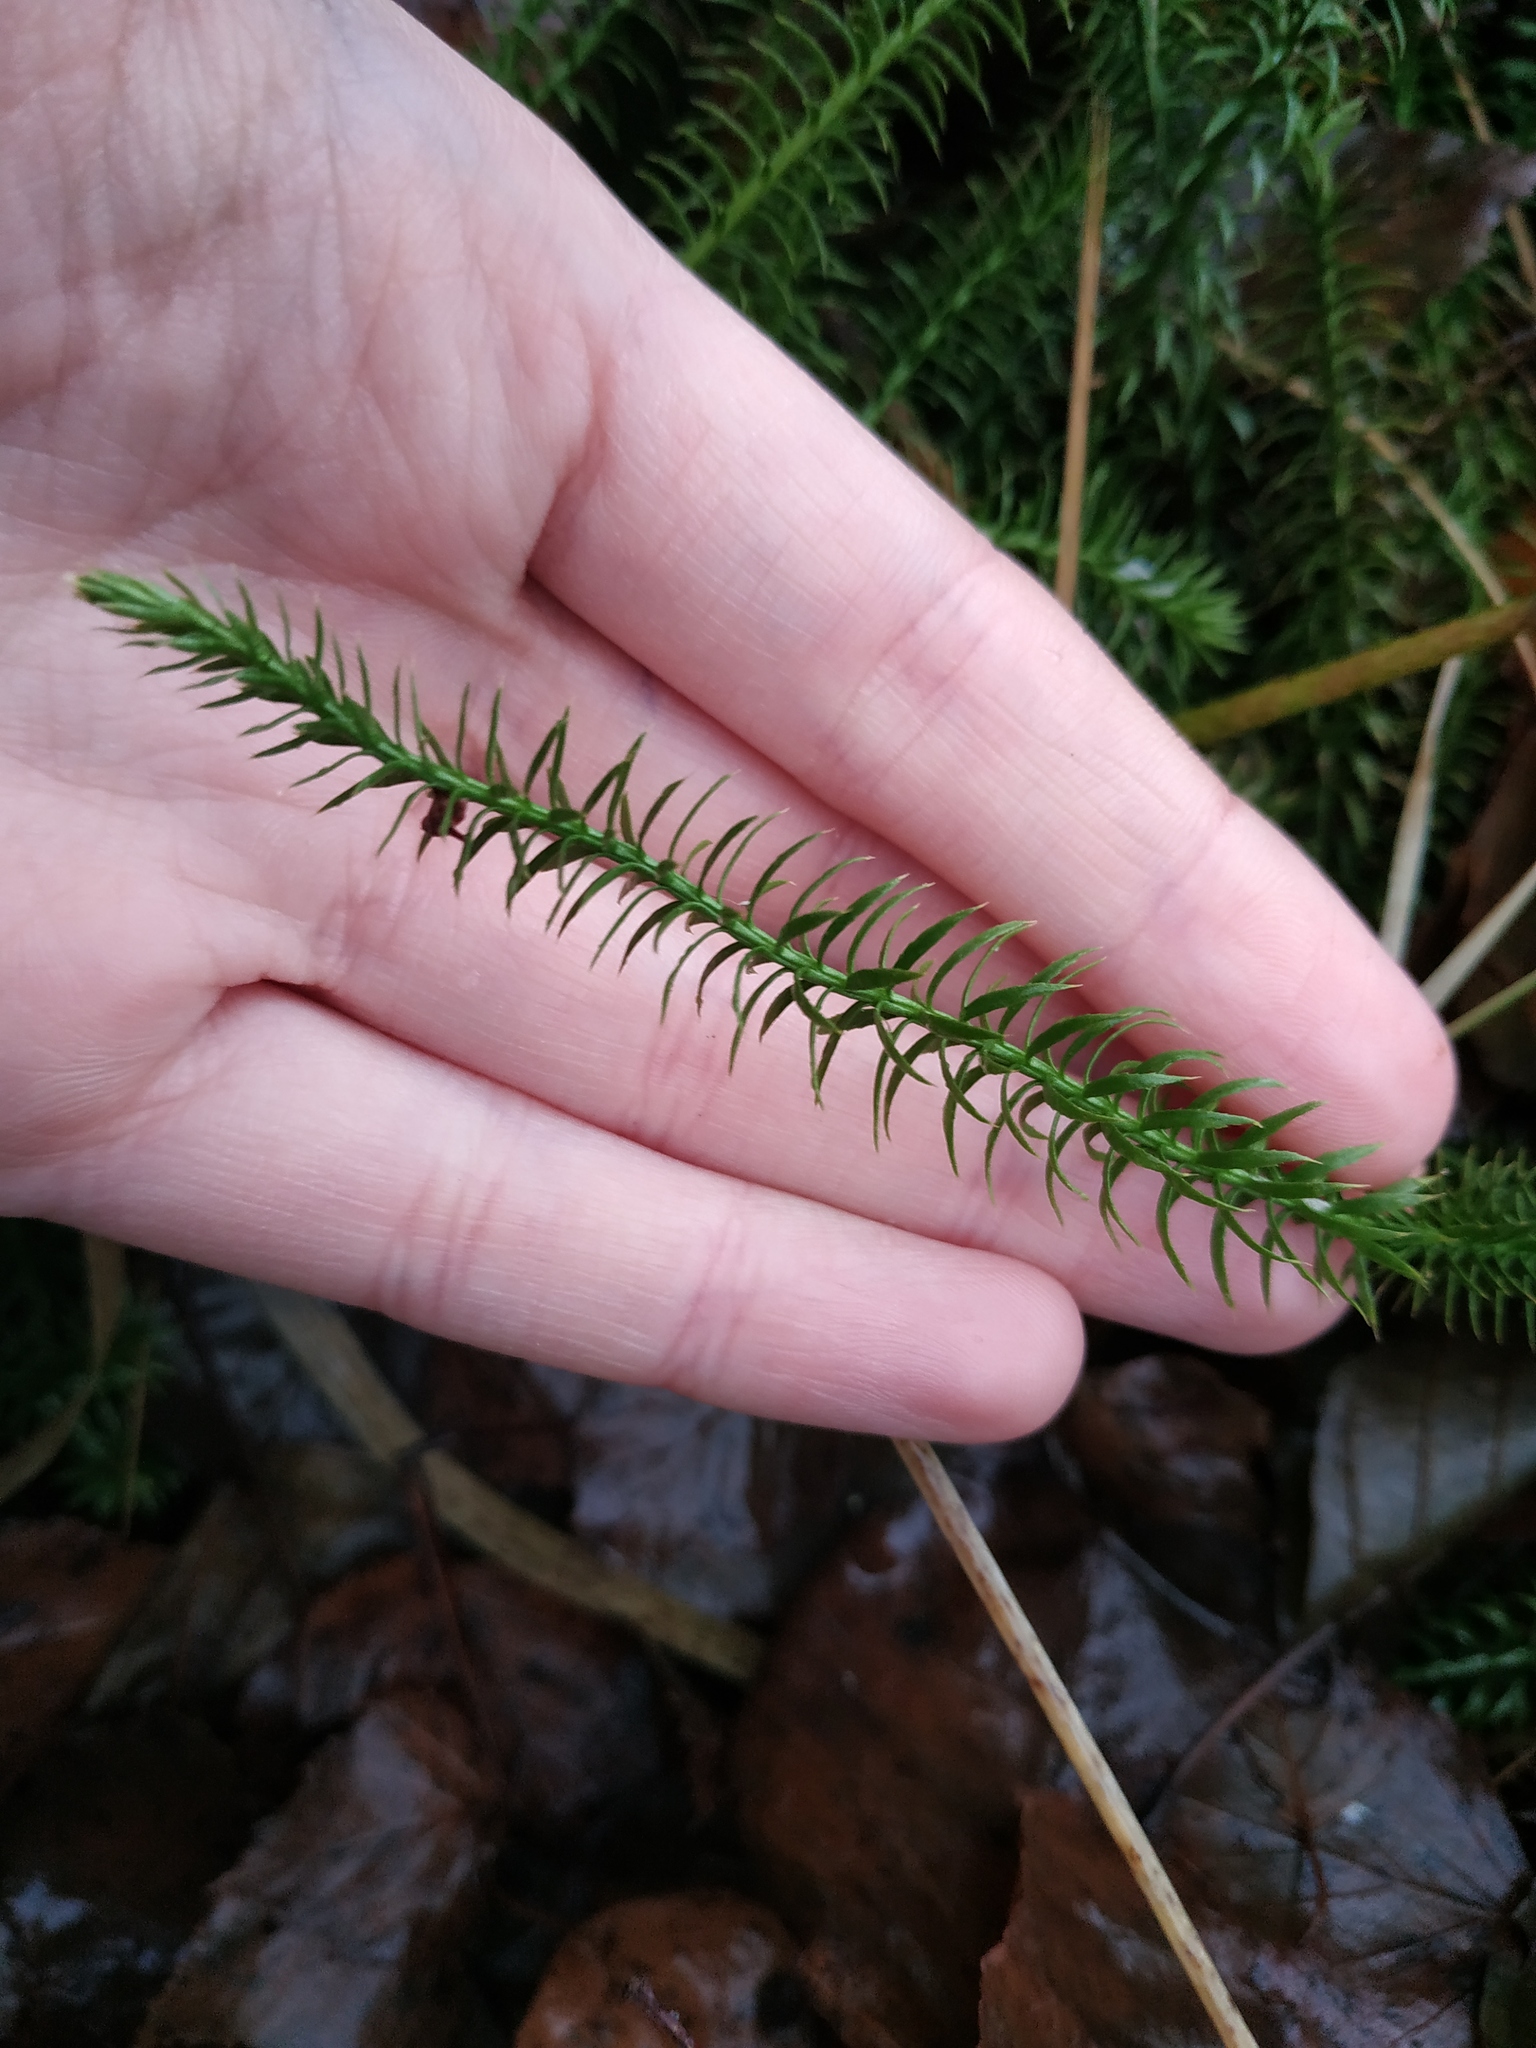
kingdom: Plantae
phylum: Tracheophyta
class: Lycopodiopsida
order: Lycopodiales
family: Lycopodiaceae
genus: Spinulum
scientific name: Spinulum annotinum
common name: Interrupted club-moss
